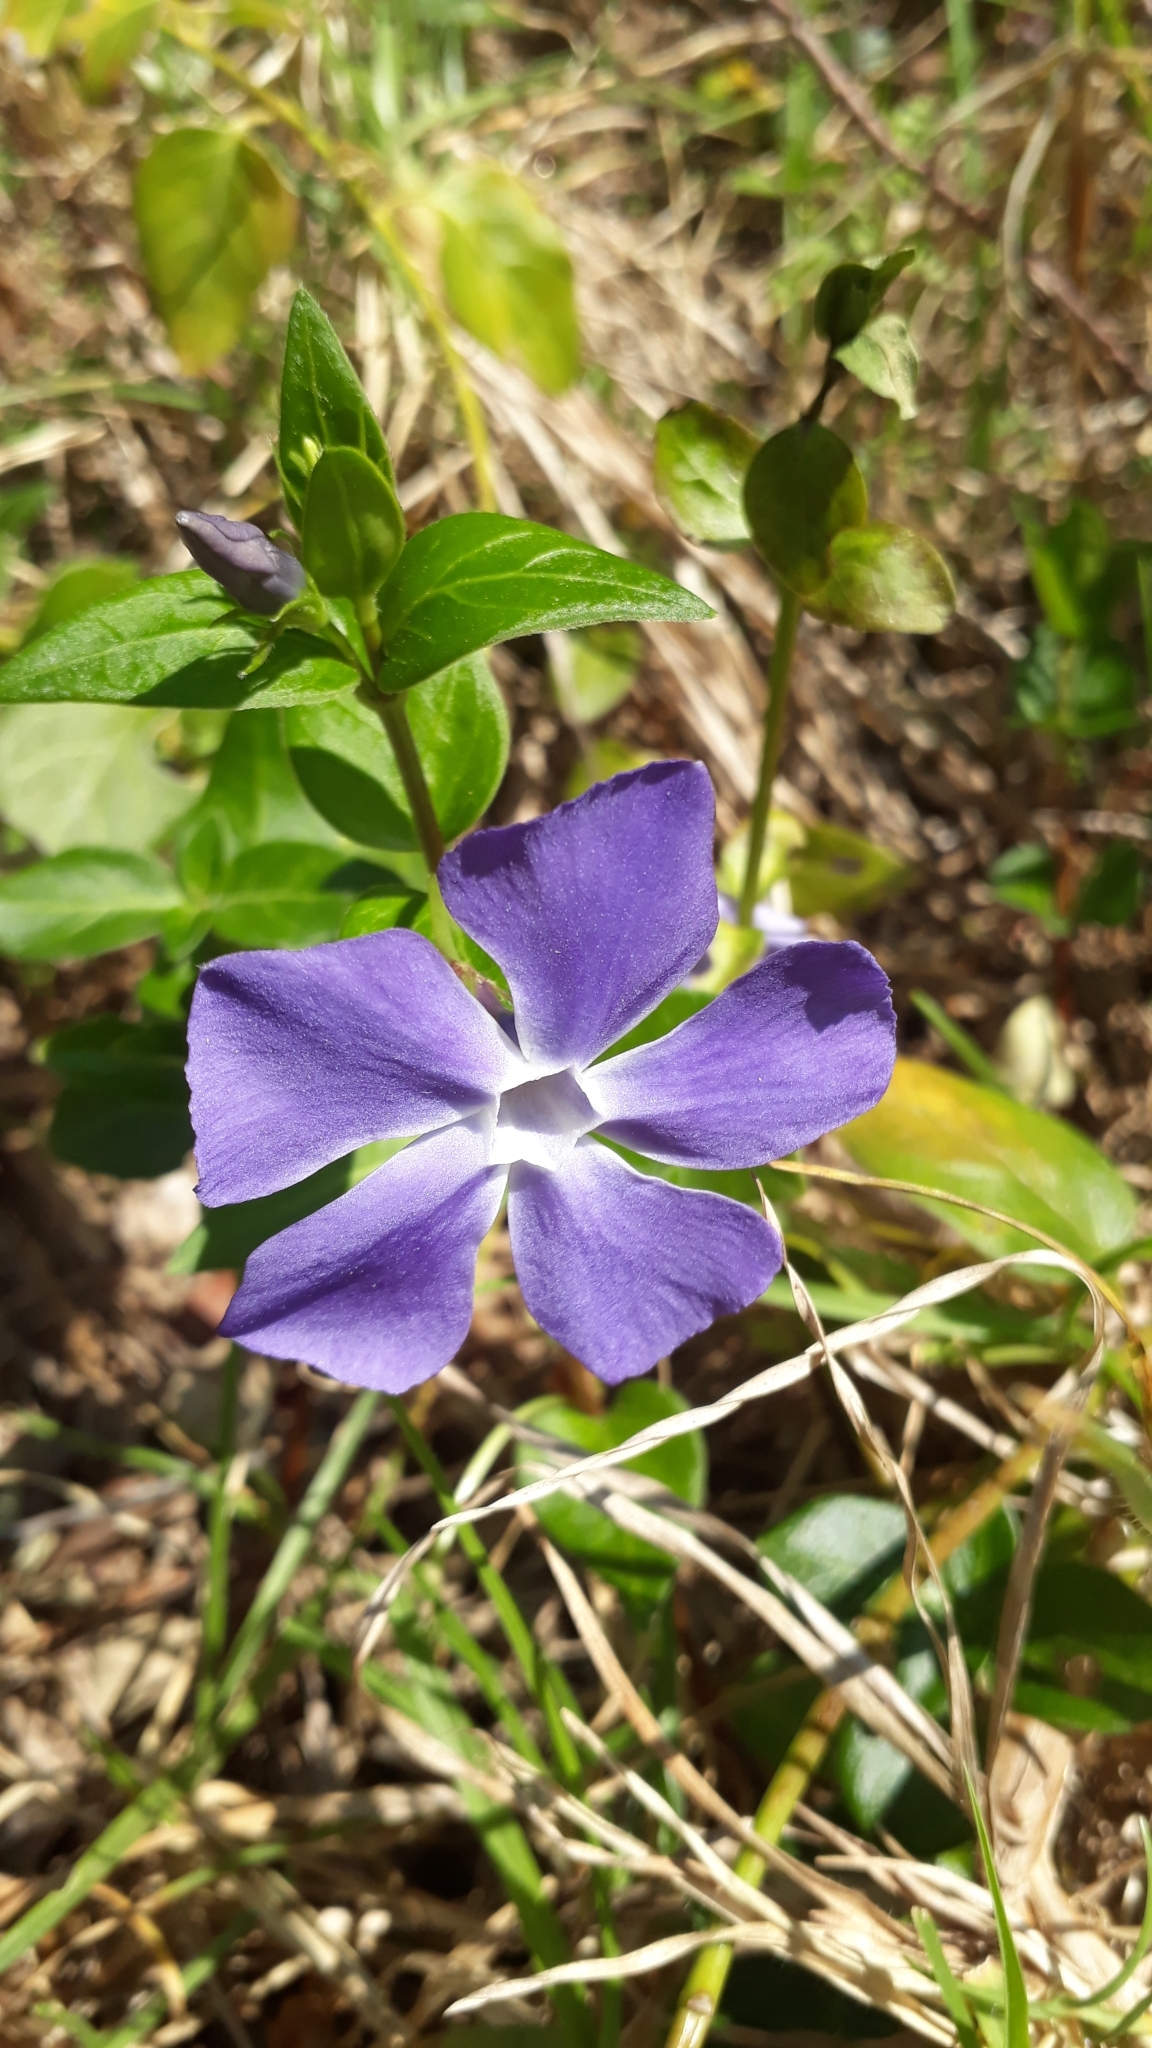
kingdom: Plantae
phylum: Tracheophyta
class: Magnoliopsida
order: Gentianales
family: Apocynaceae
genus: Vinca
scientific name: Vinca major
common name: Greater periwinkle
